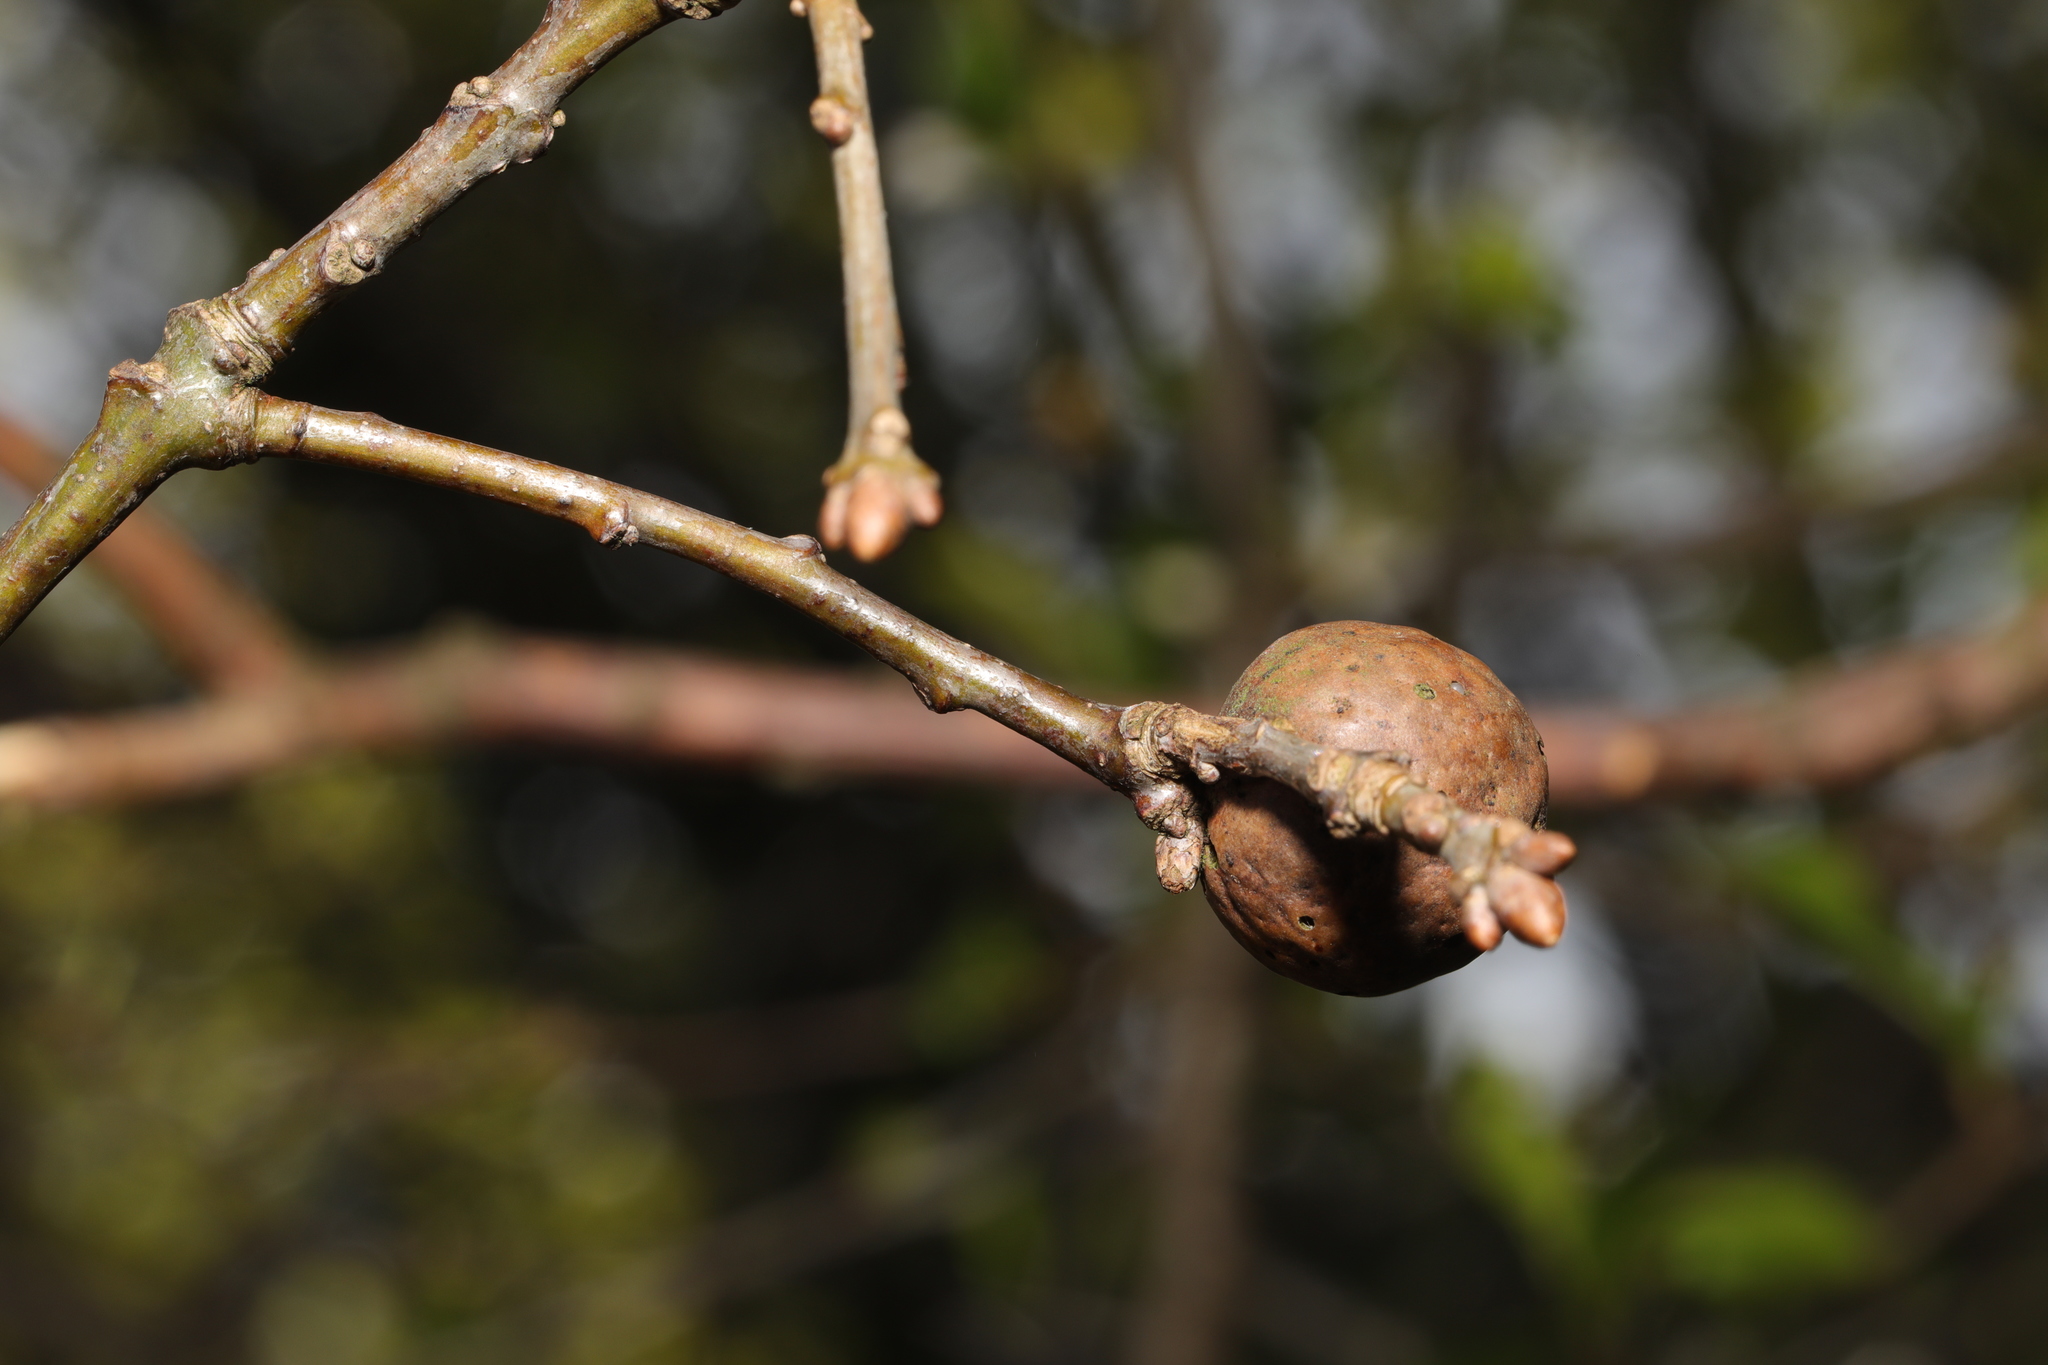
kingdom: Animalia
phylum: Arthropoda
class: Insecta
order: Hymenoptera
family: Cynipidae
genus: Andricus
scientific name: Andricus kollari
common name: Marble gall
